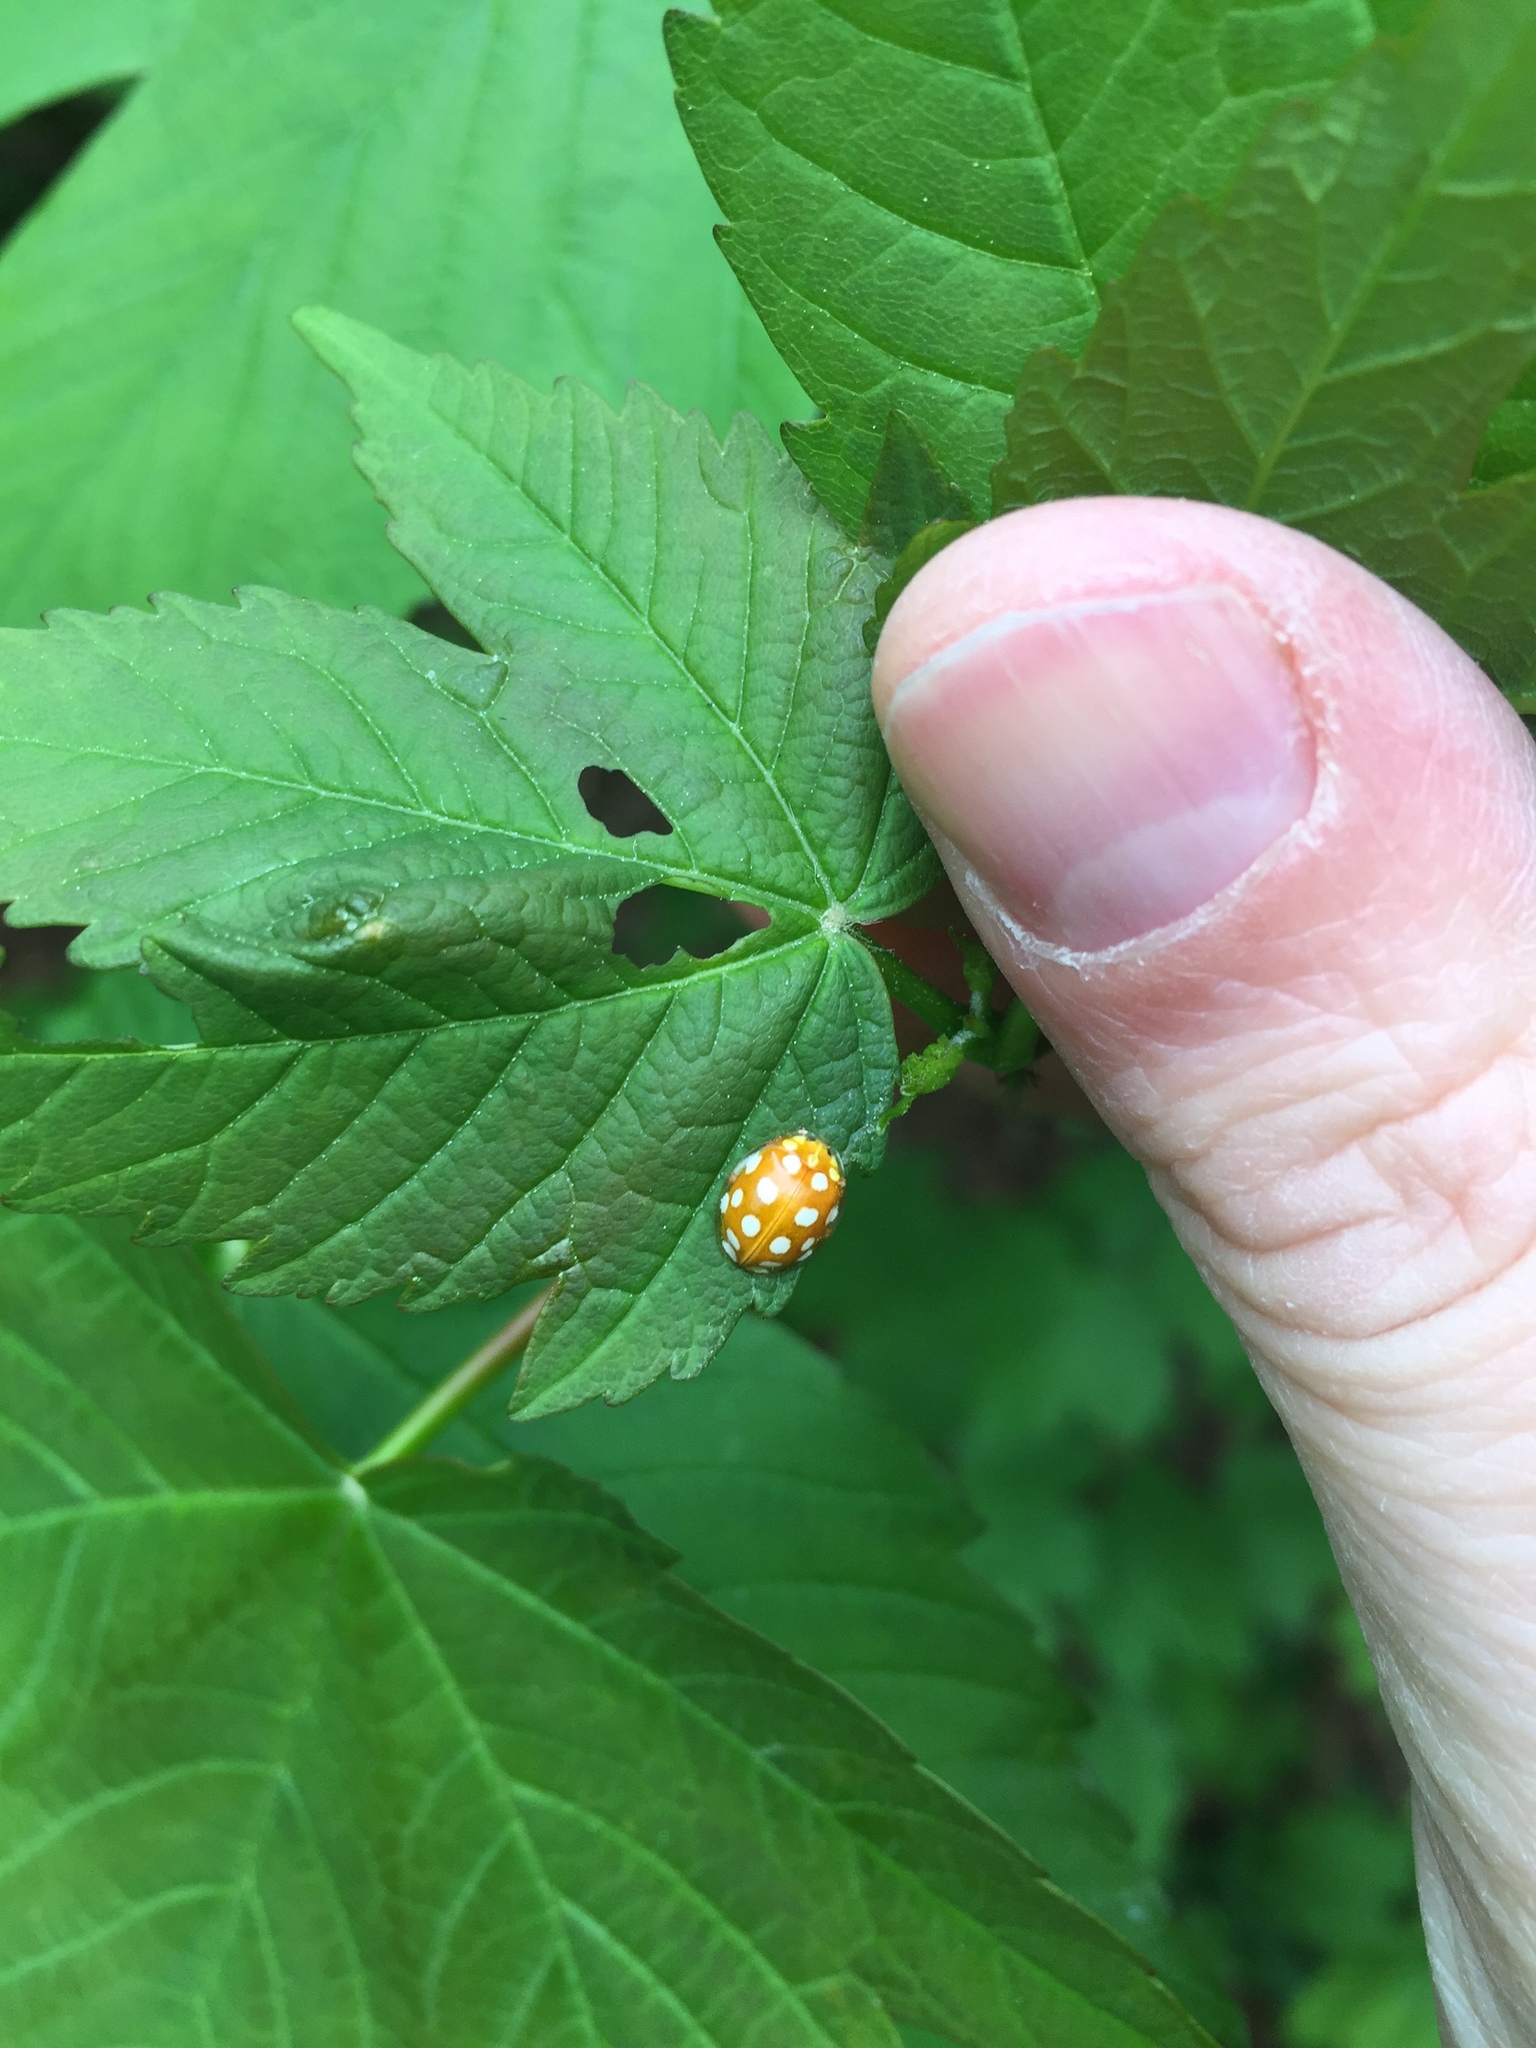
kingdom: Animalia
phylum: Arthropoda
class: Insecta
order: Coleoptera
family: Coccinellidae
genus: Halyzia
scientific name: Halyzia sedecimguttata
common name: Orange ladybird
